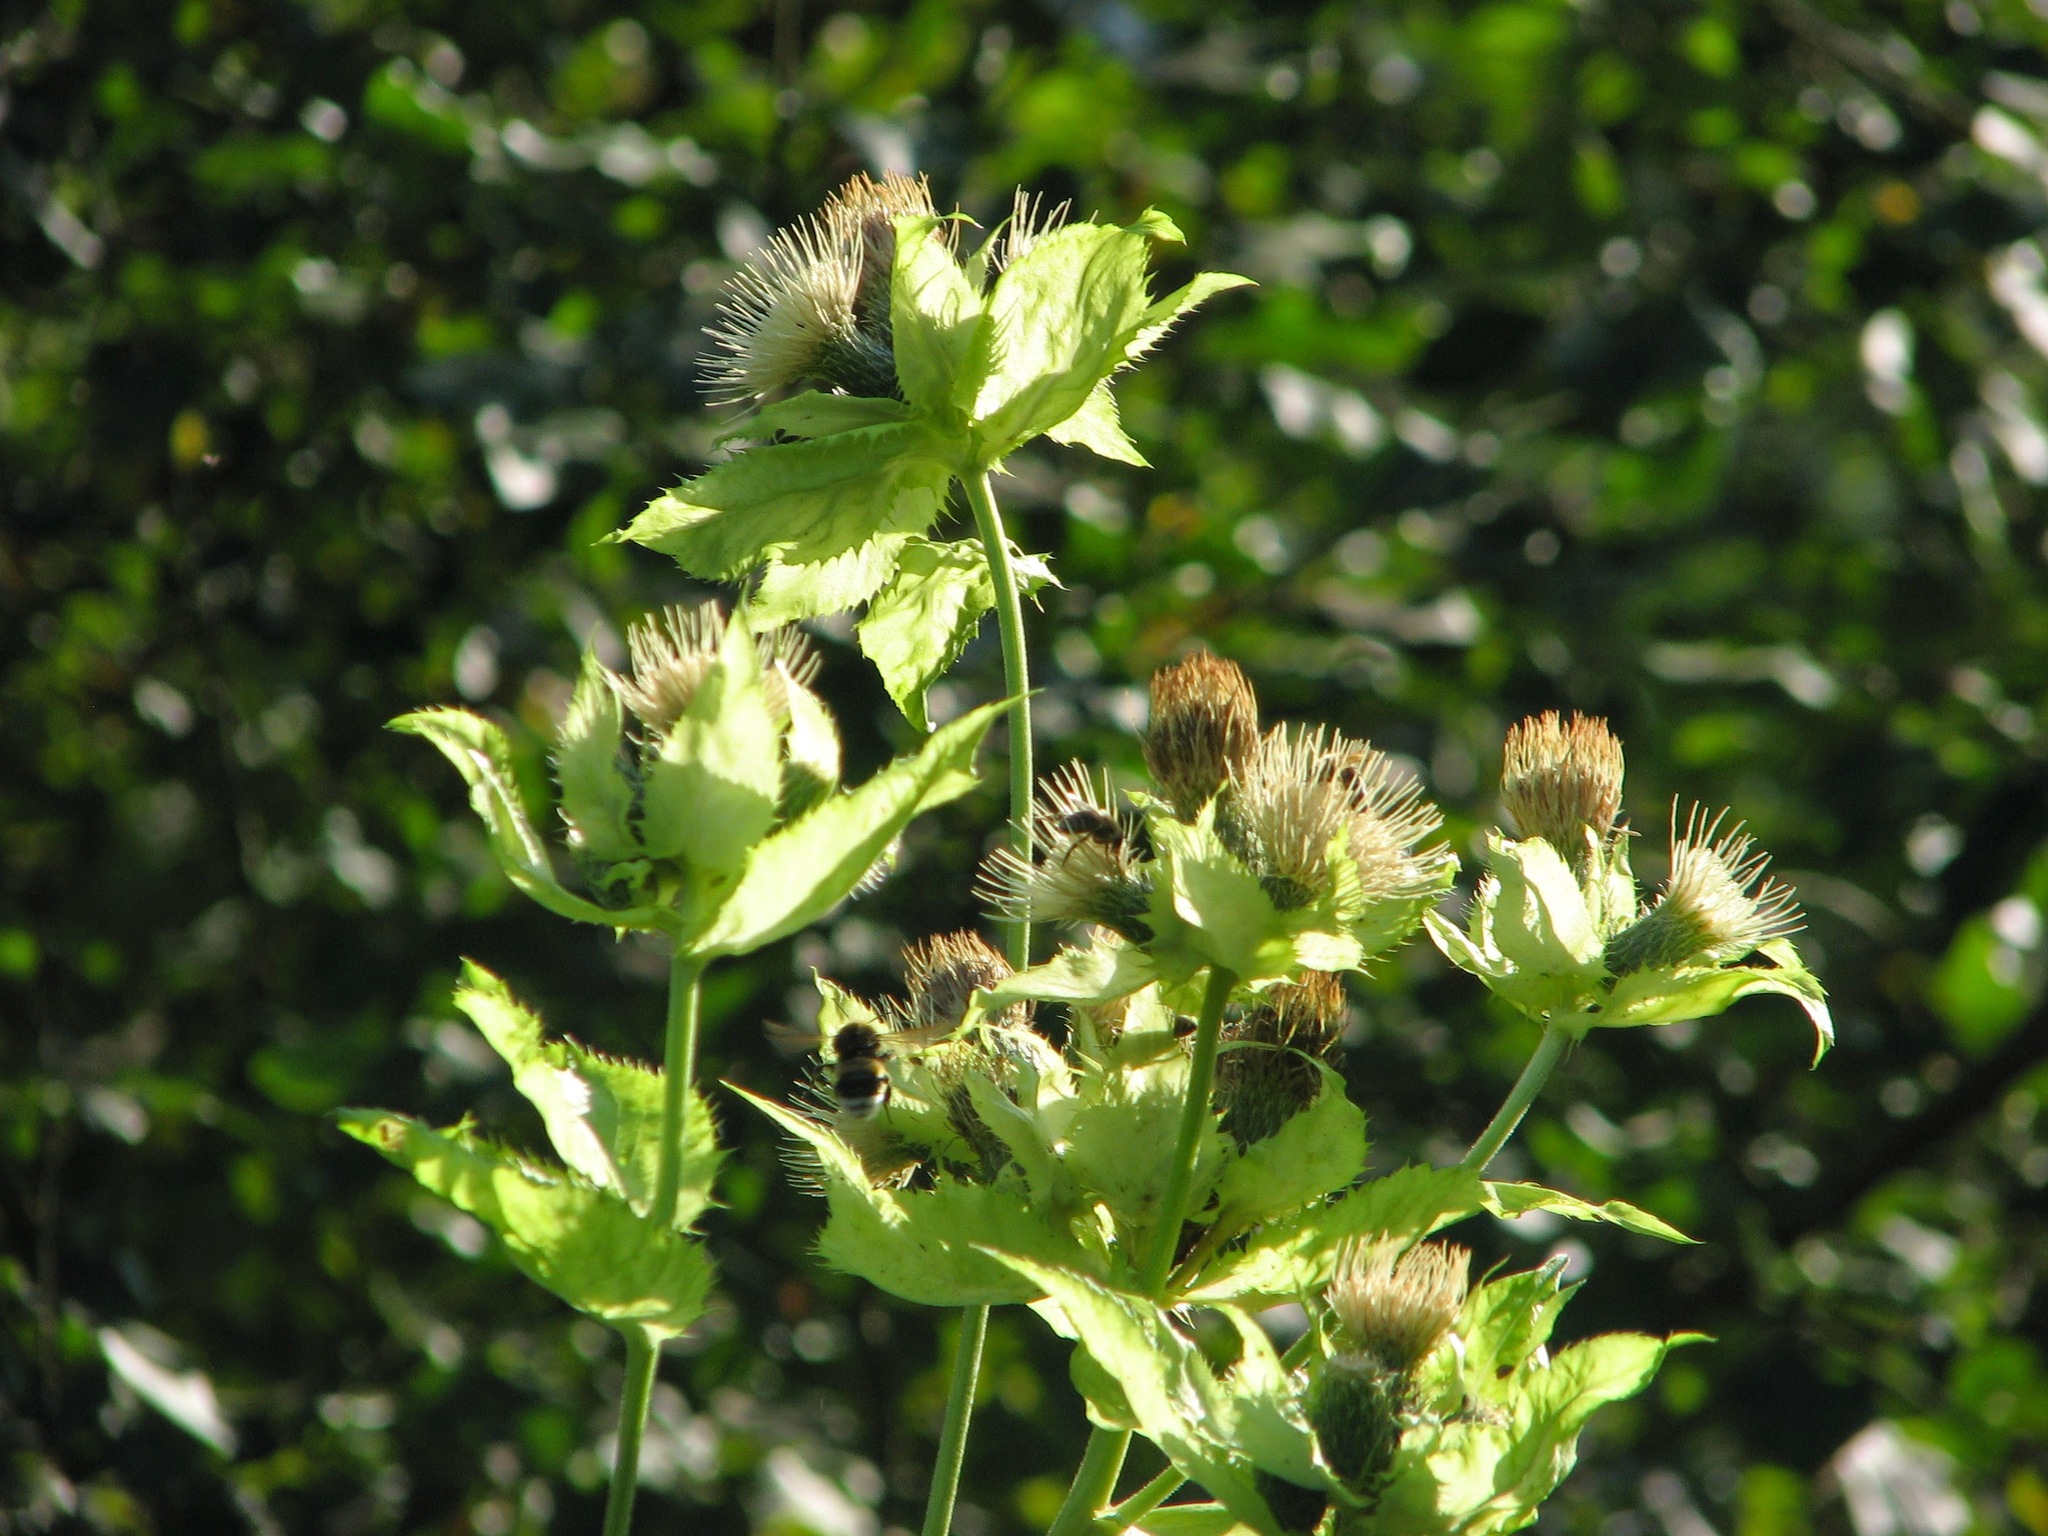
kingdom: Plantae
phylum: Tracheophyta
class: Magnoliopsida
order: Asterales
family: Asteraceae
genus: Cirsium
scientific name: Cirsium oleraceum
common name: Cabbage thistle
